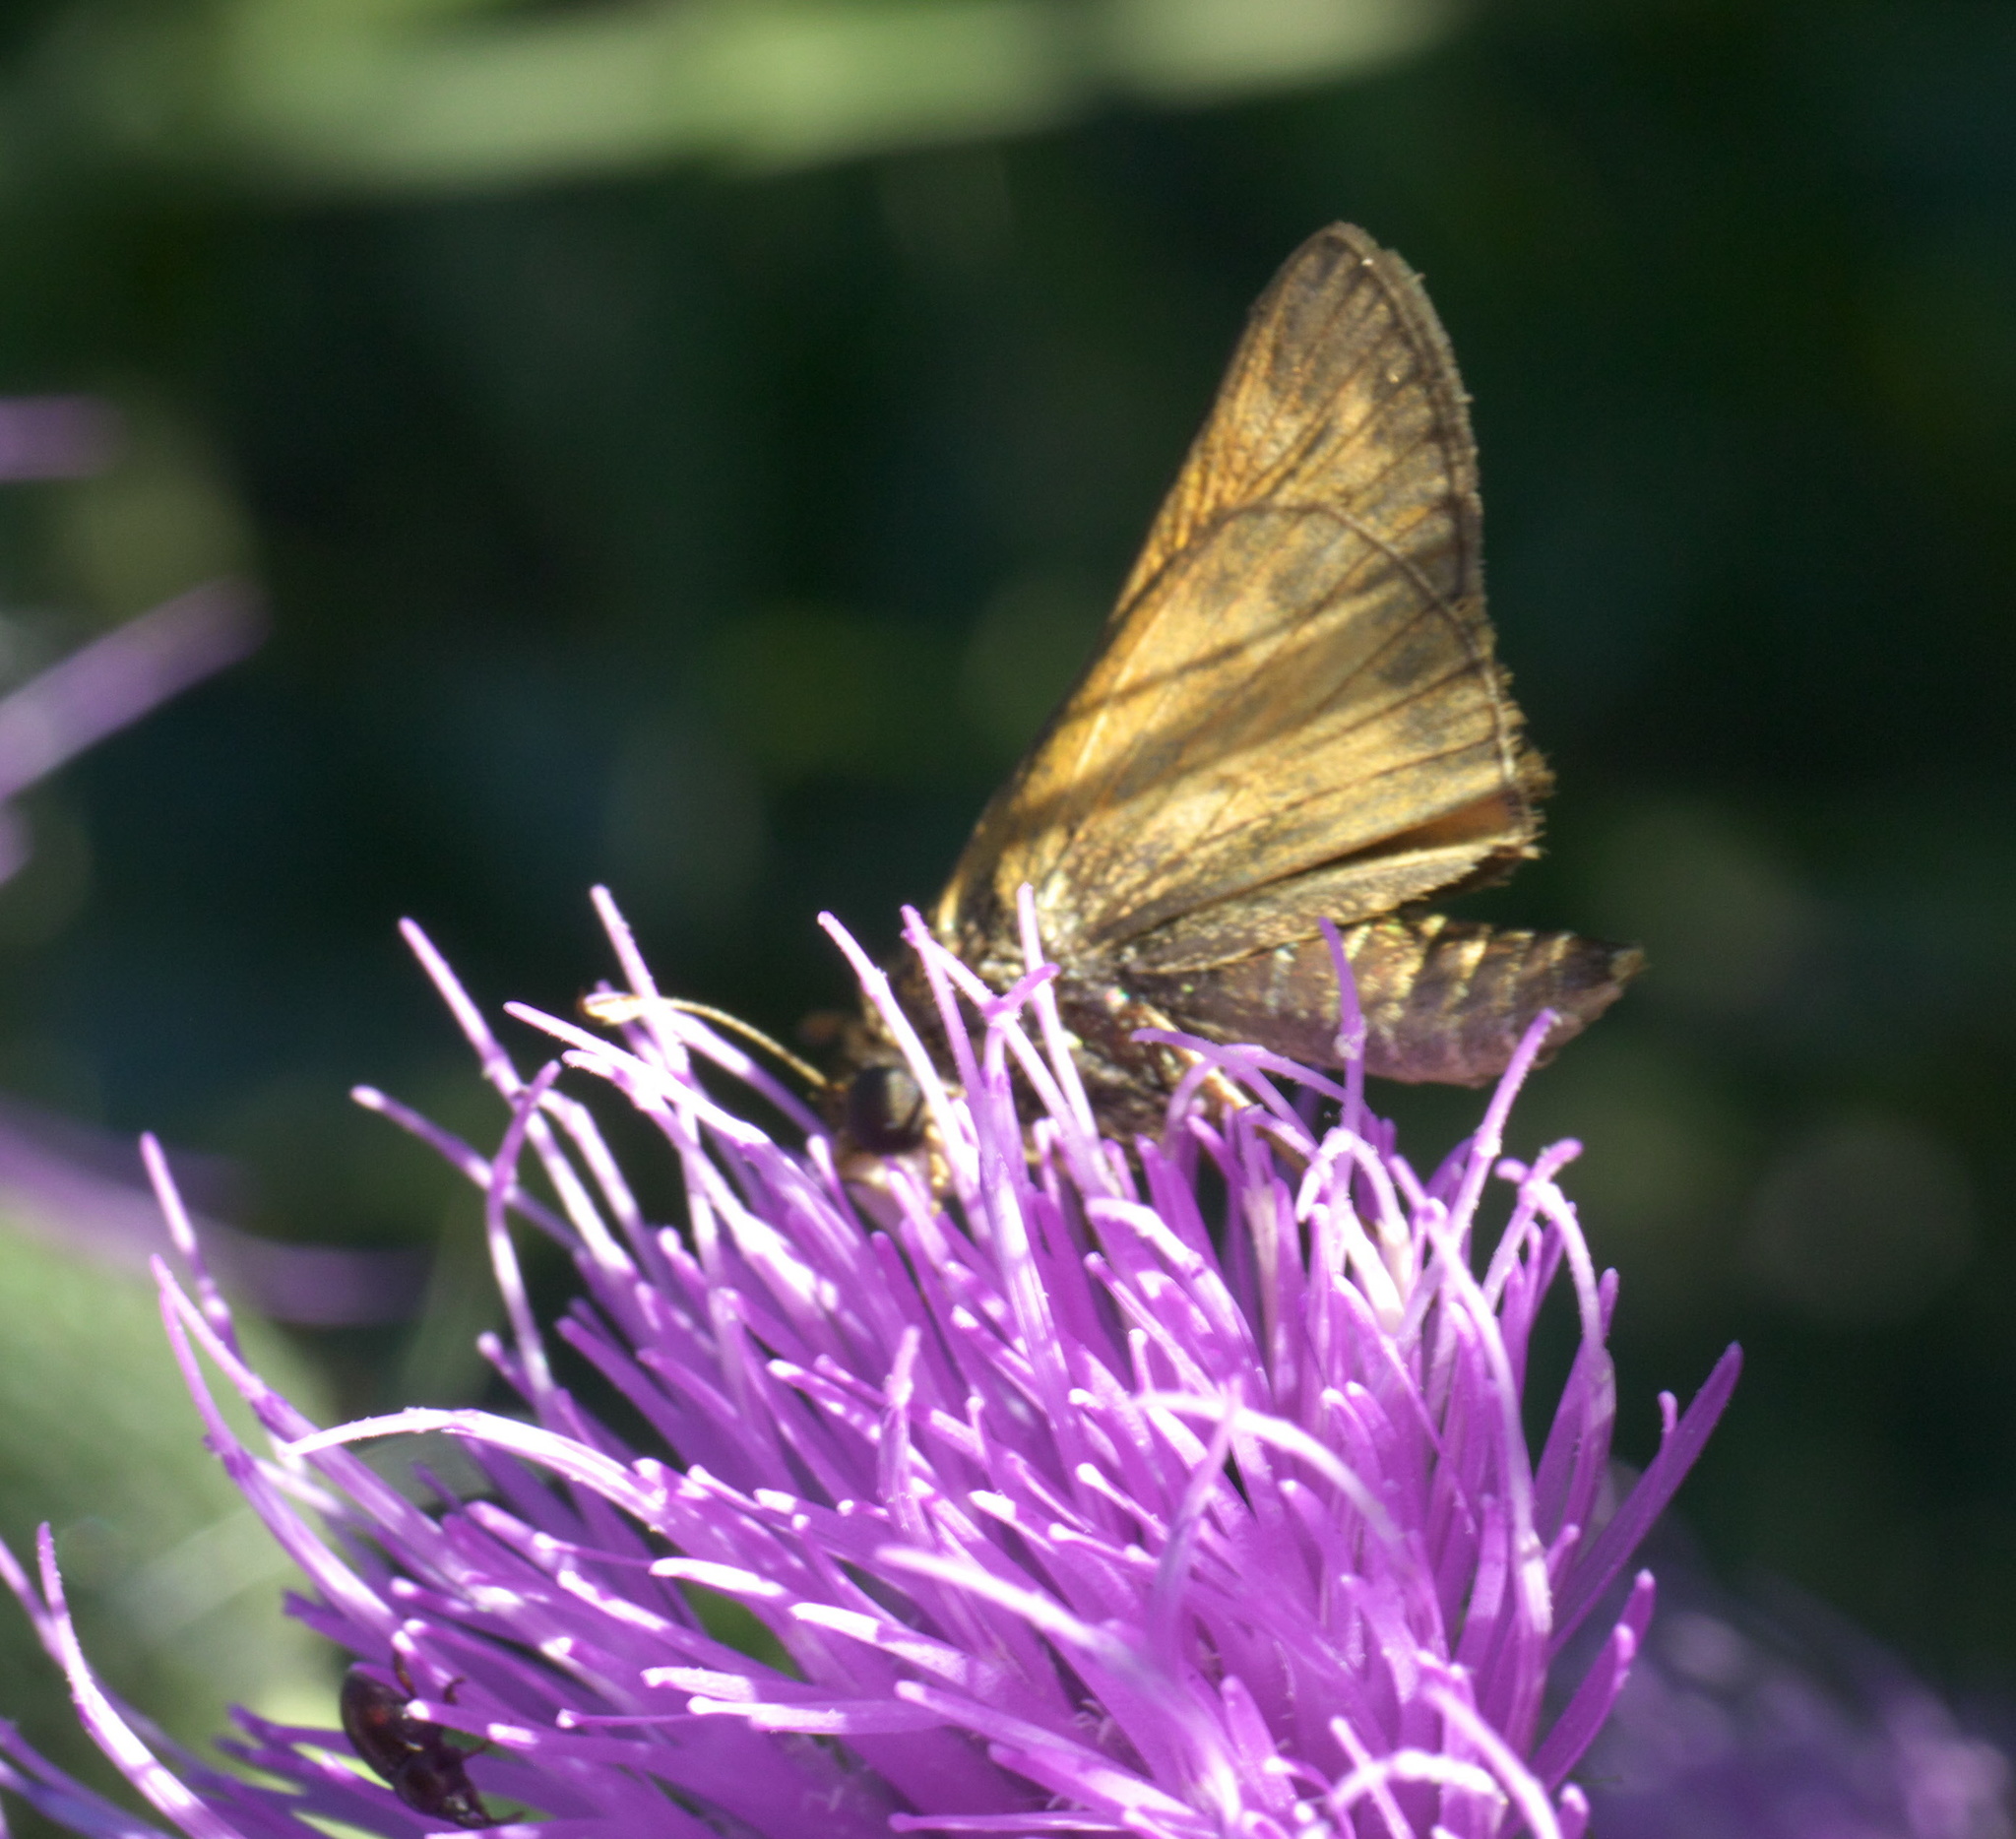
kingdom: Animalia
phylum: Arthropoda
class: Insecta
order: Lepidoptera
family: Hesperiidae
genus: Atalopedes
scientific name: Atalopedes
